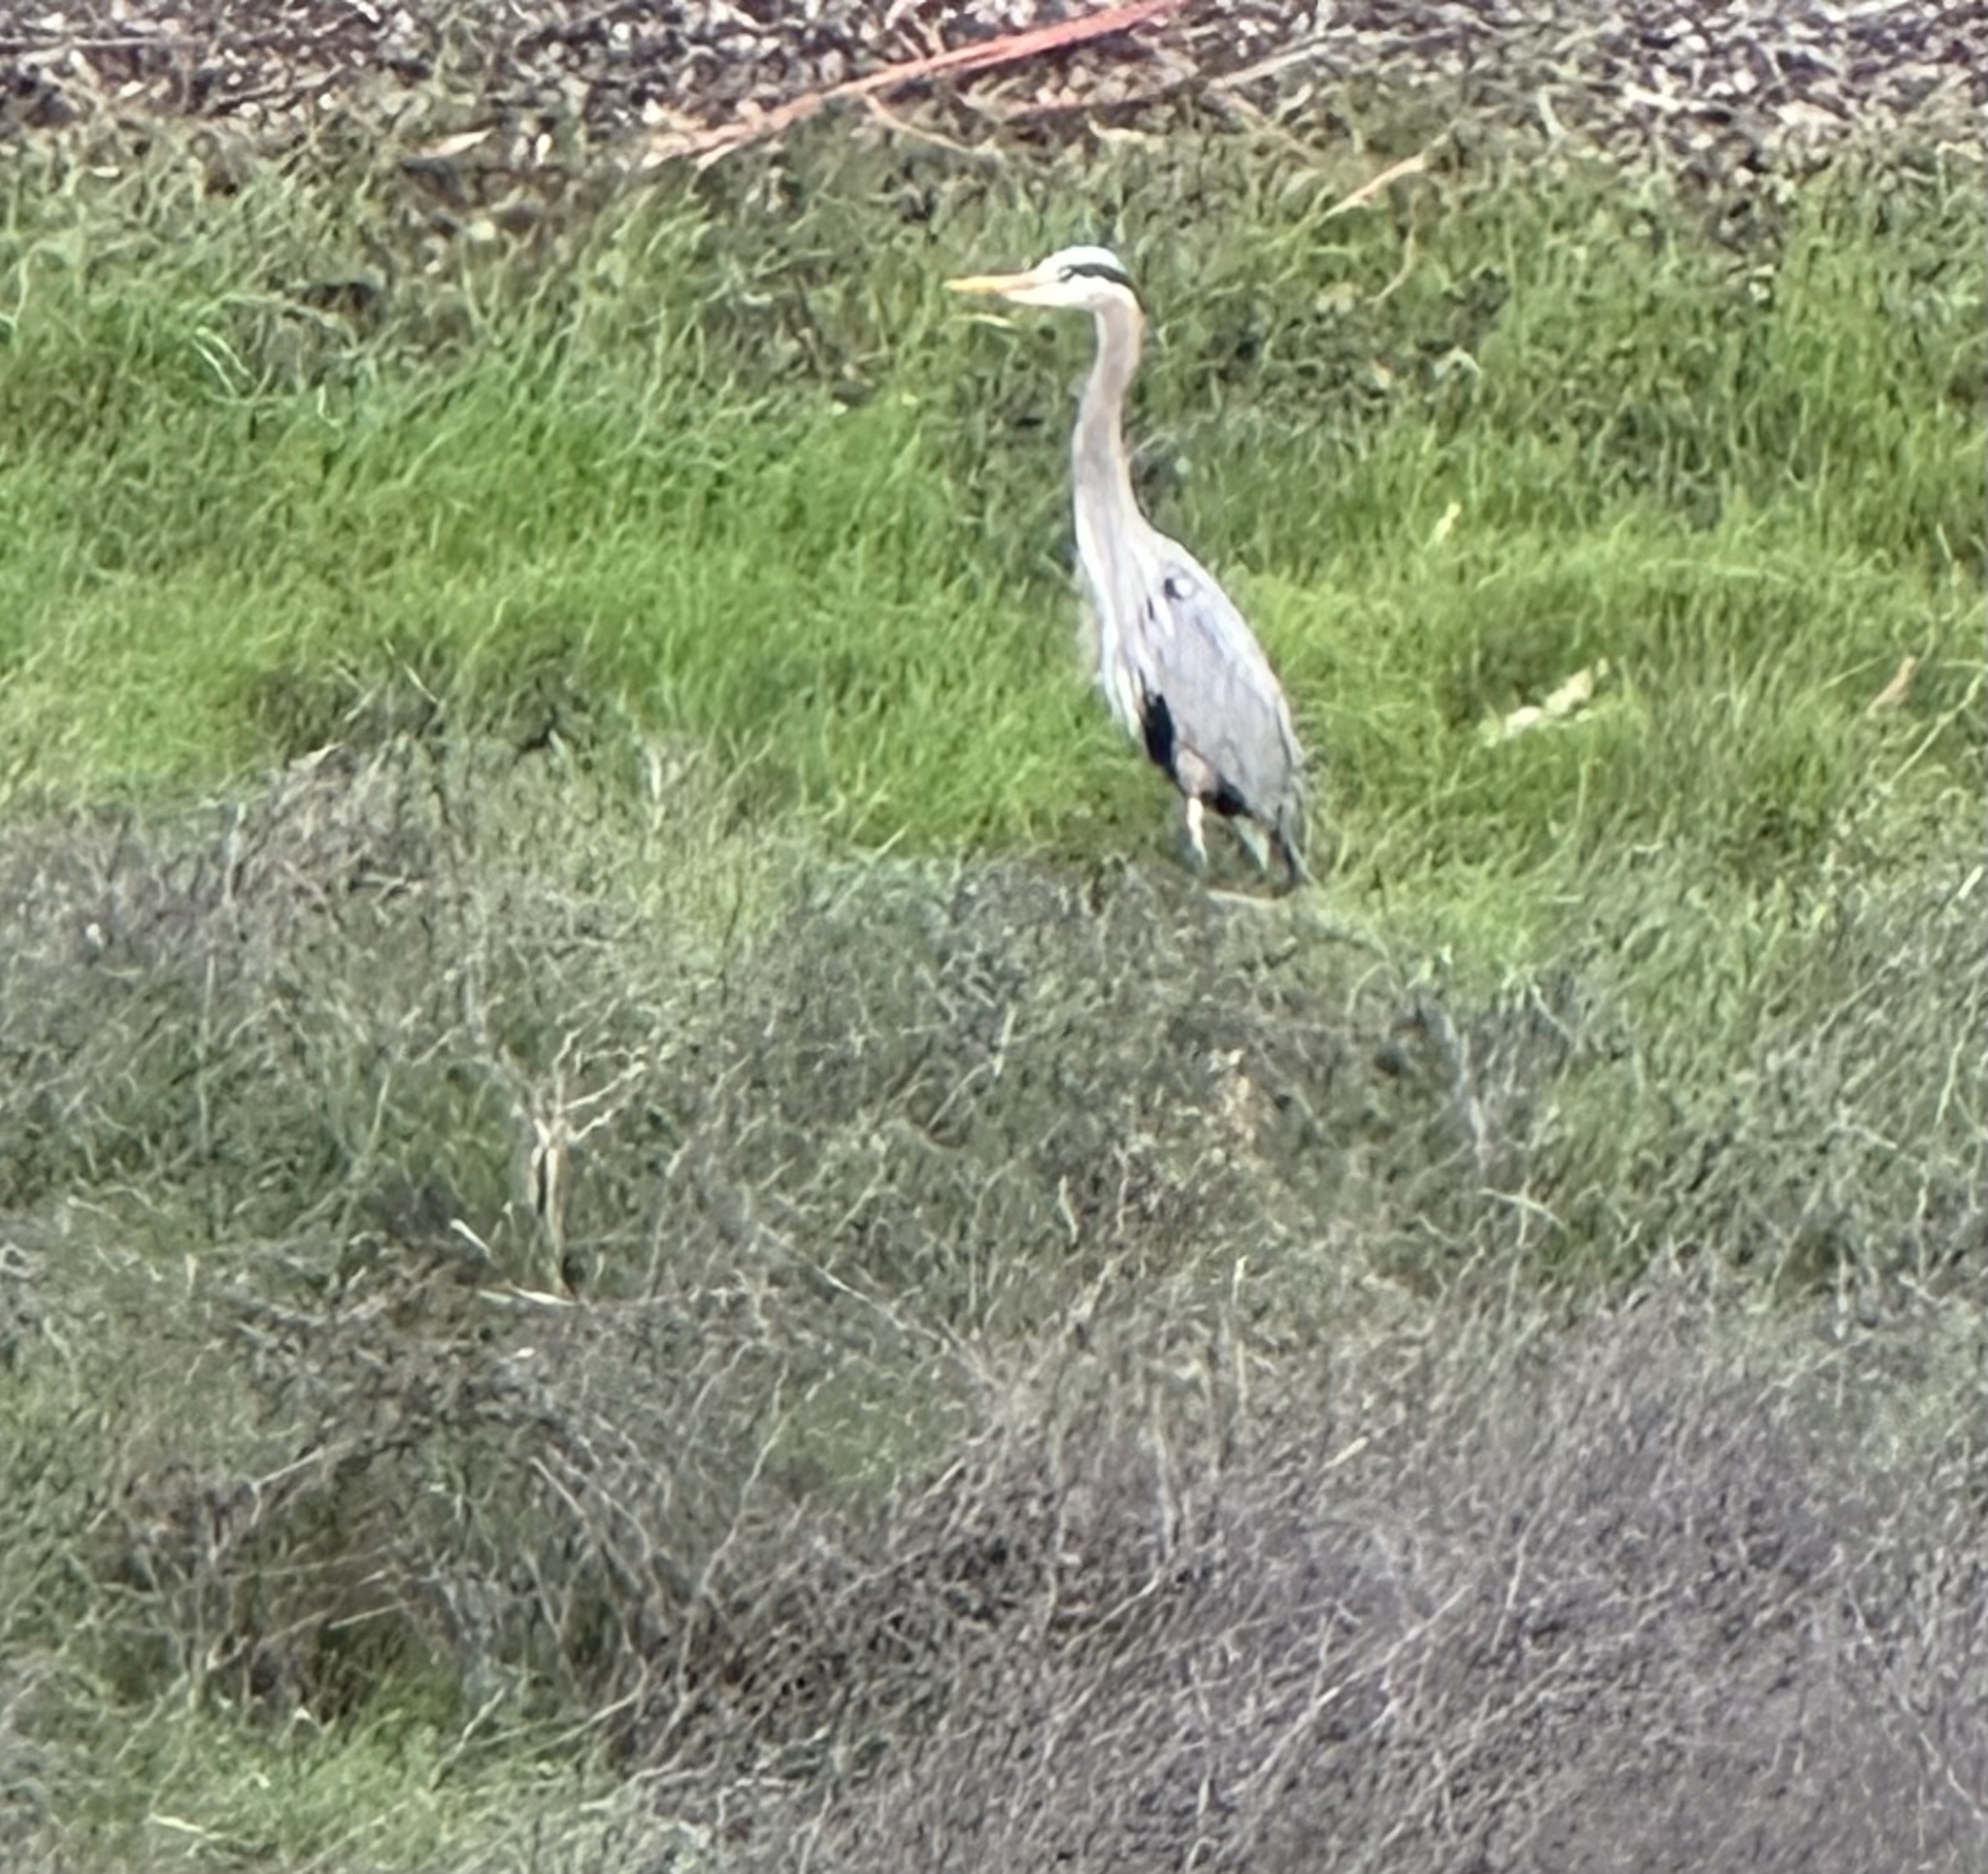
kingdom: Animalia
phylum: Chordata
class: Aves
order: Pelecaniformes
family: Ardeidae
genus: Ardea
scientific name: Ardea herodias
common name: Great blue heron
